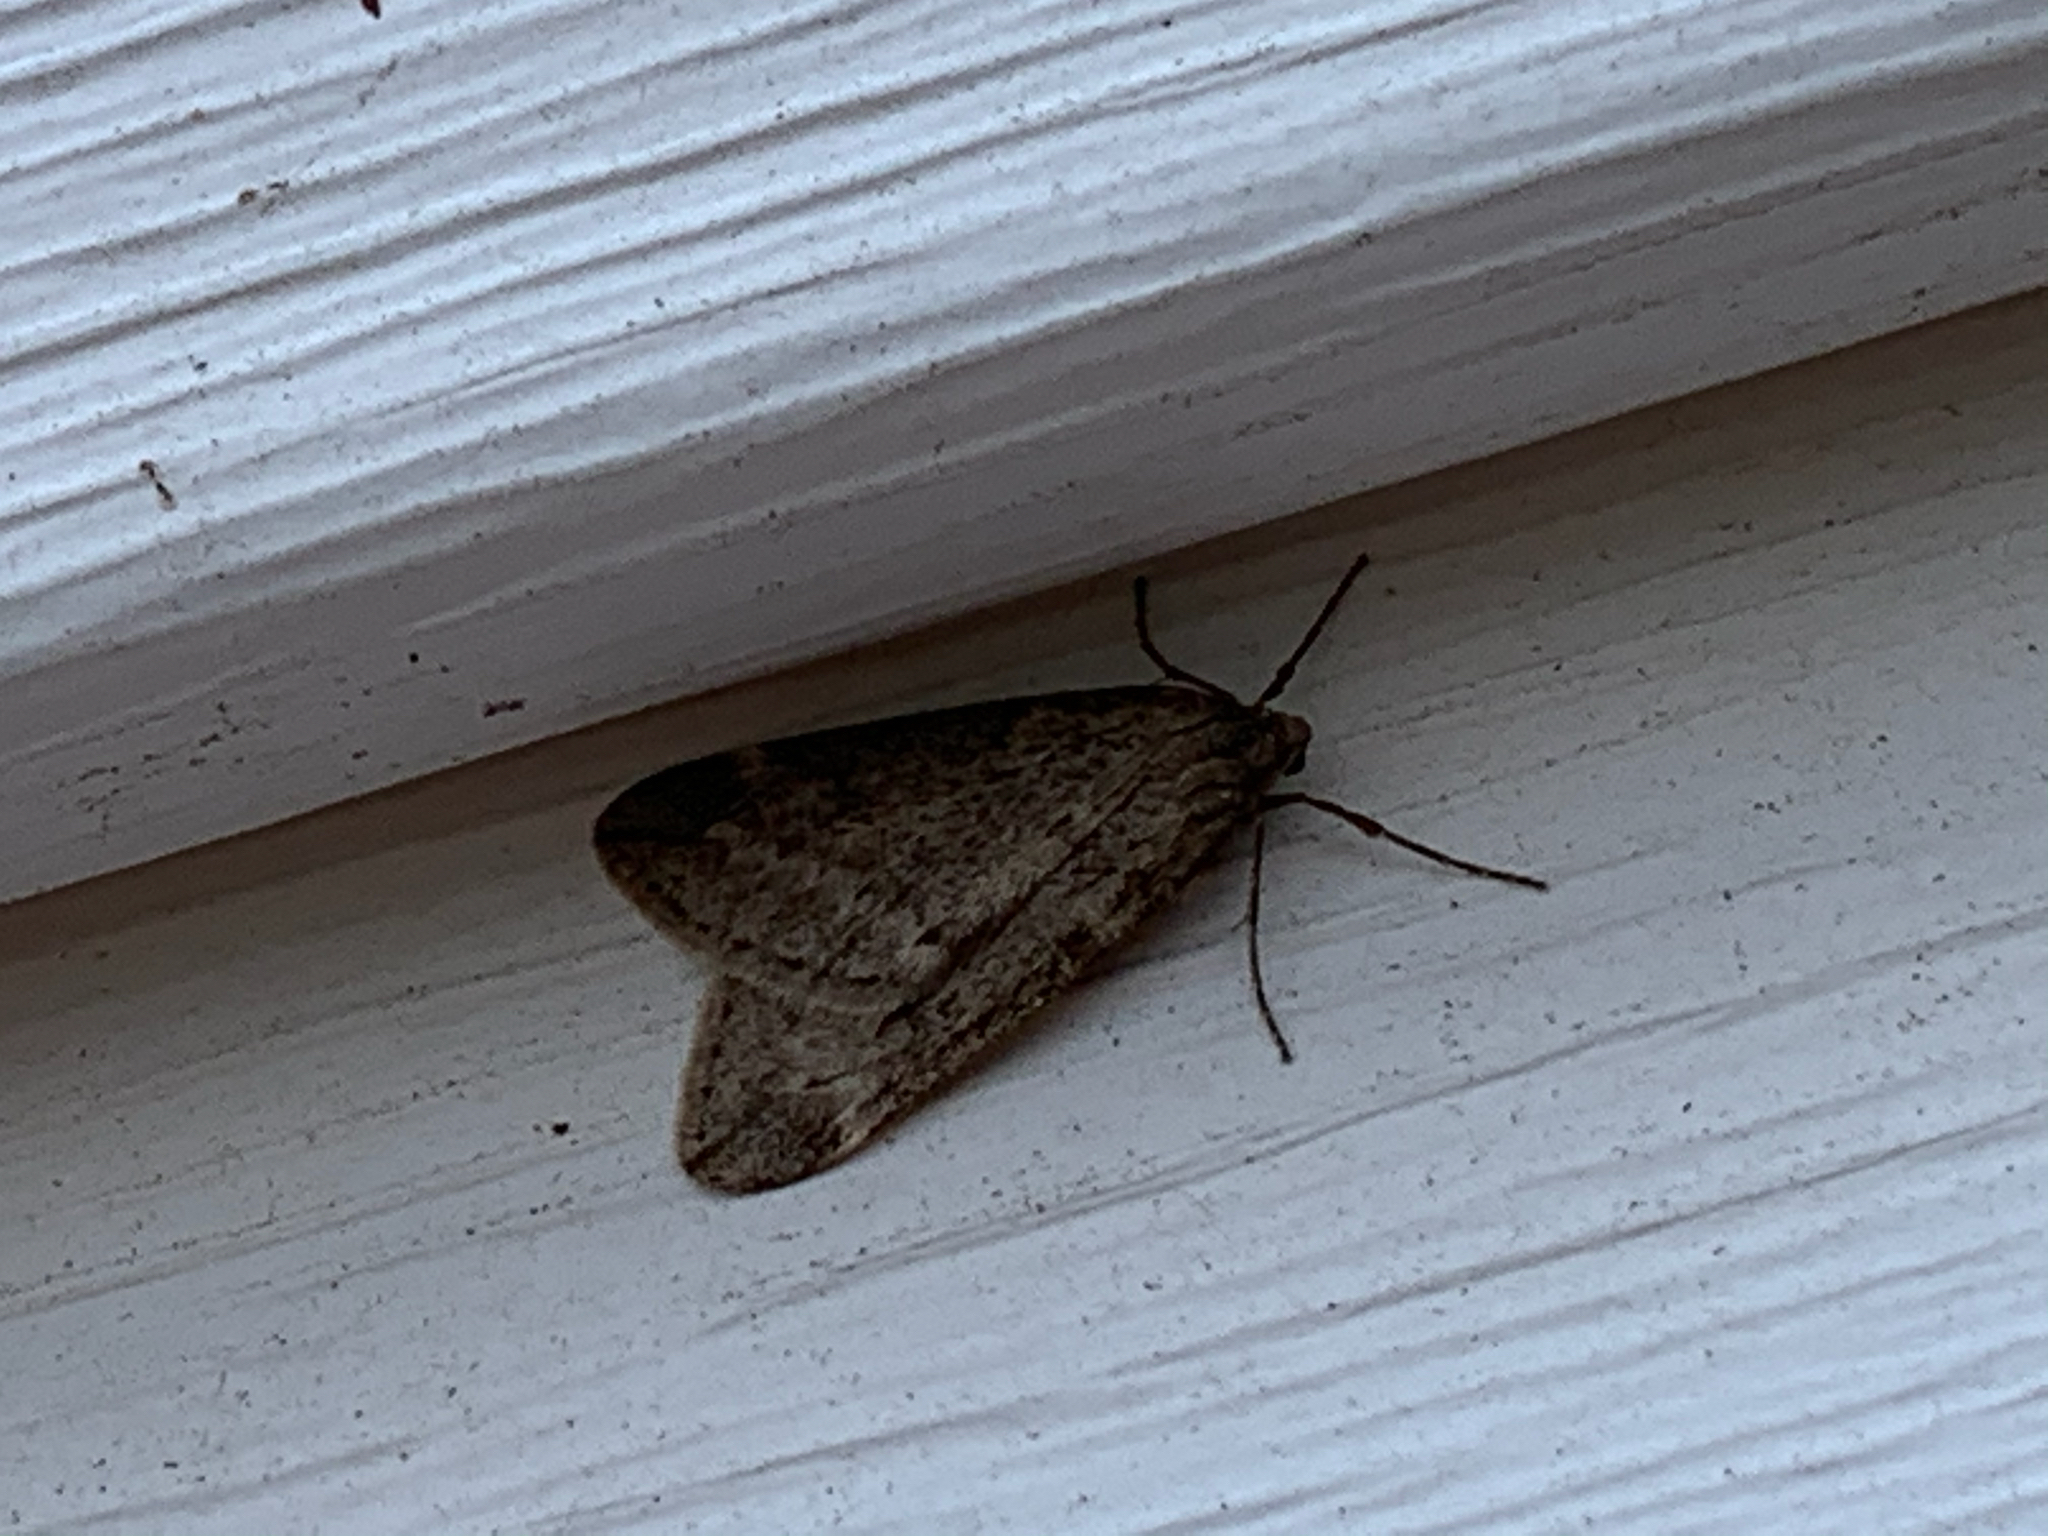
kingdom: Animalia
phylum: Arthropoda
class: Insecta
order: Lepidoptera
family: Geometridae
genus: Alsophila
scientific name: Alsophila pometaria
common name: Fall cankerworm
